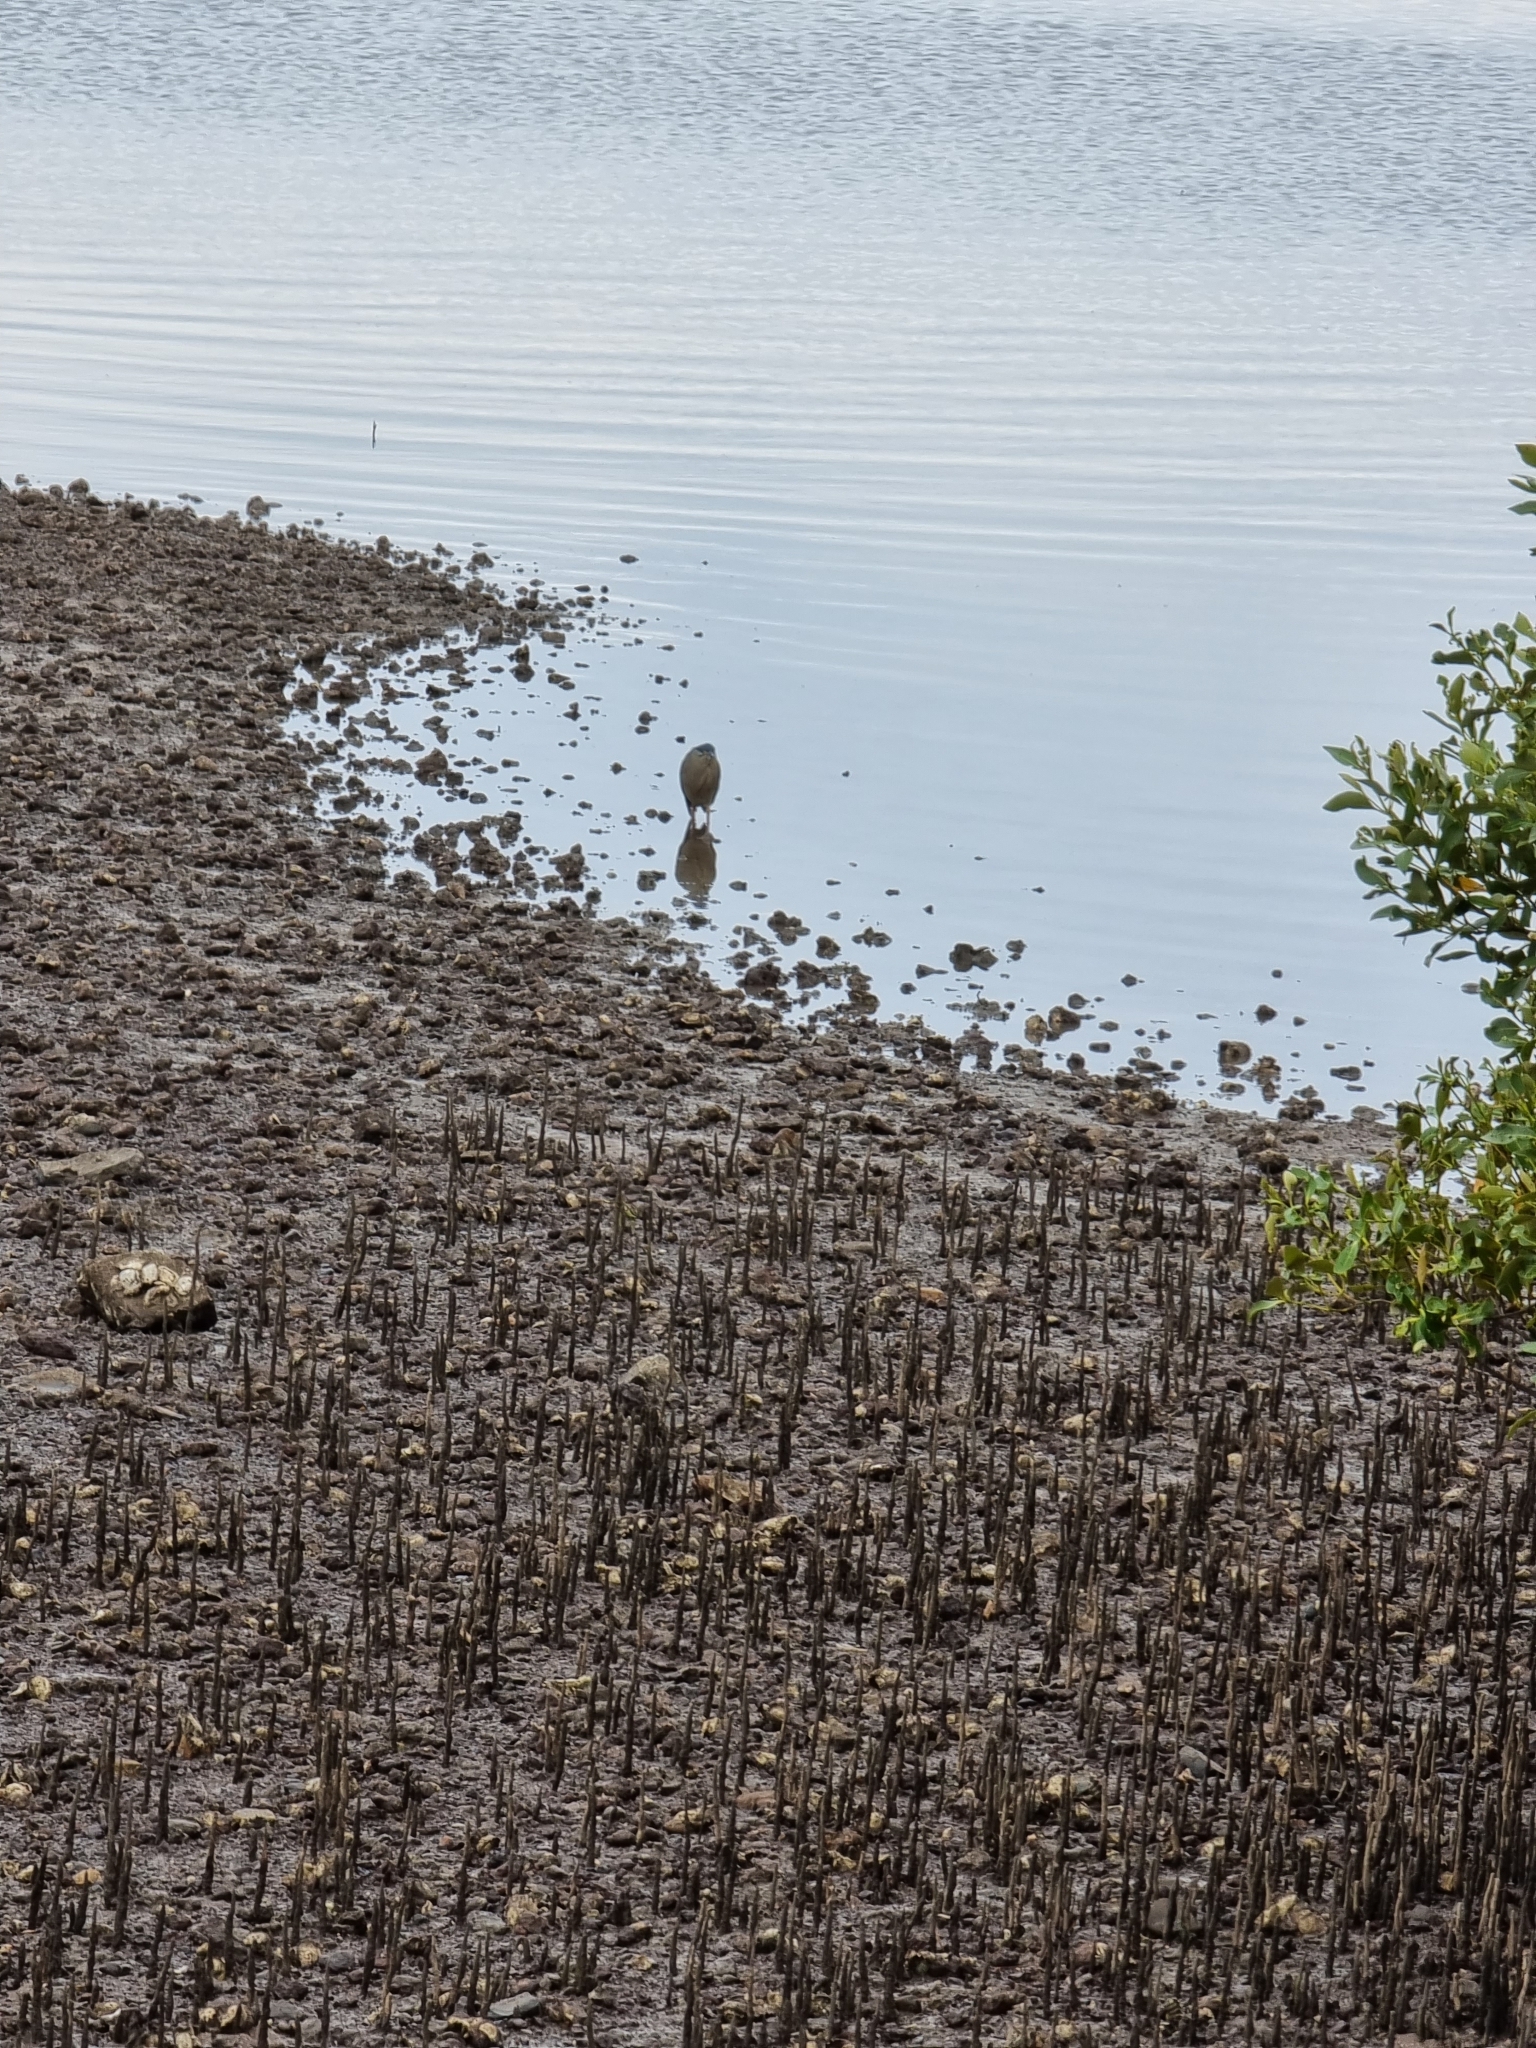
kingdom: Animalia
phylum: Chordata
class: Aves
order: Pelecaniformes
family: Ardeidae
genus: Butorides
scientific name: Butorides striata
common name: Striated heron
